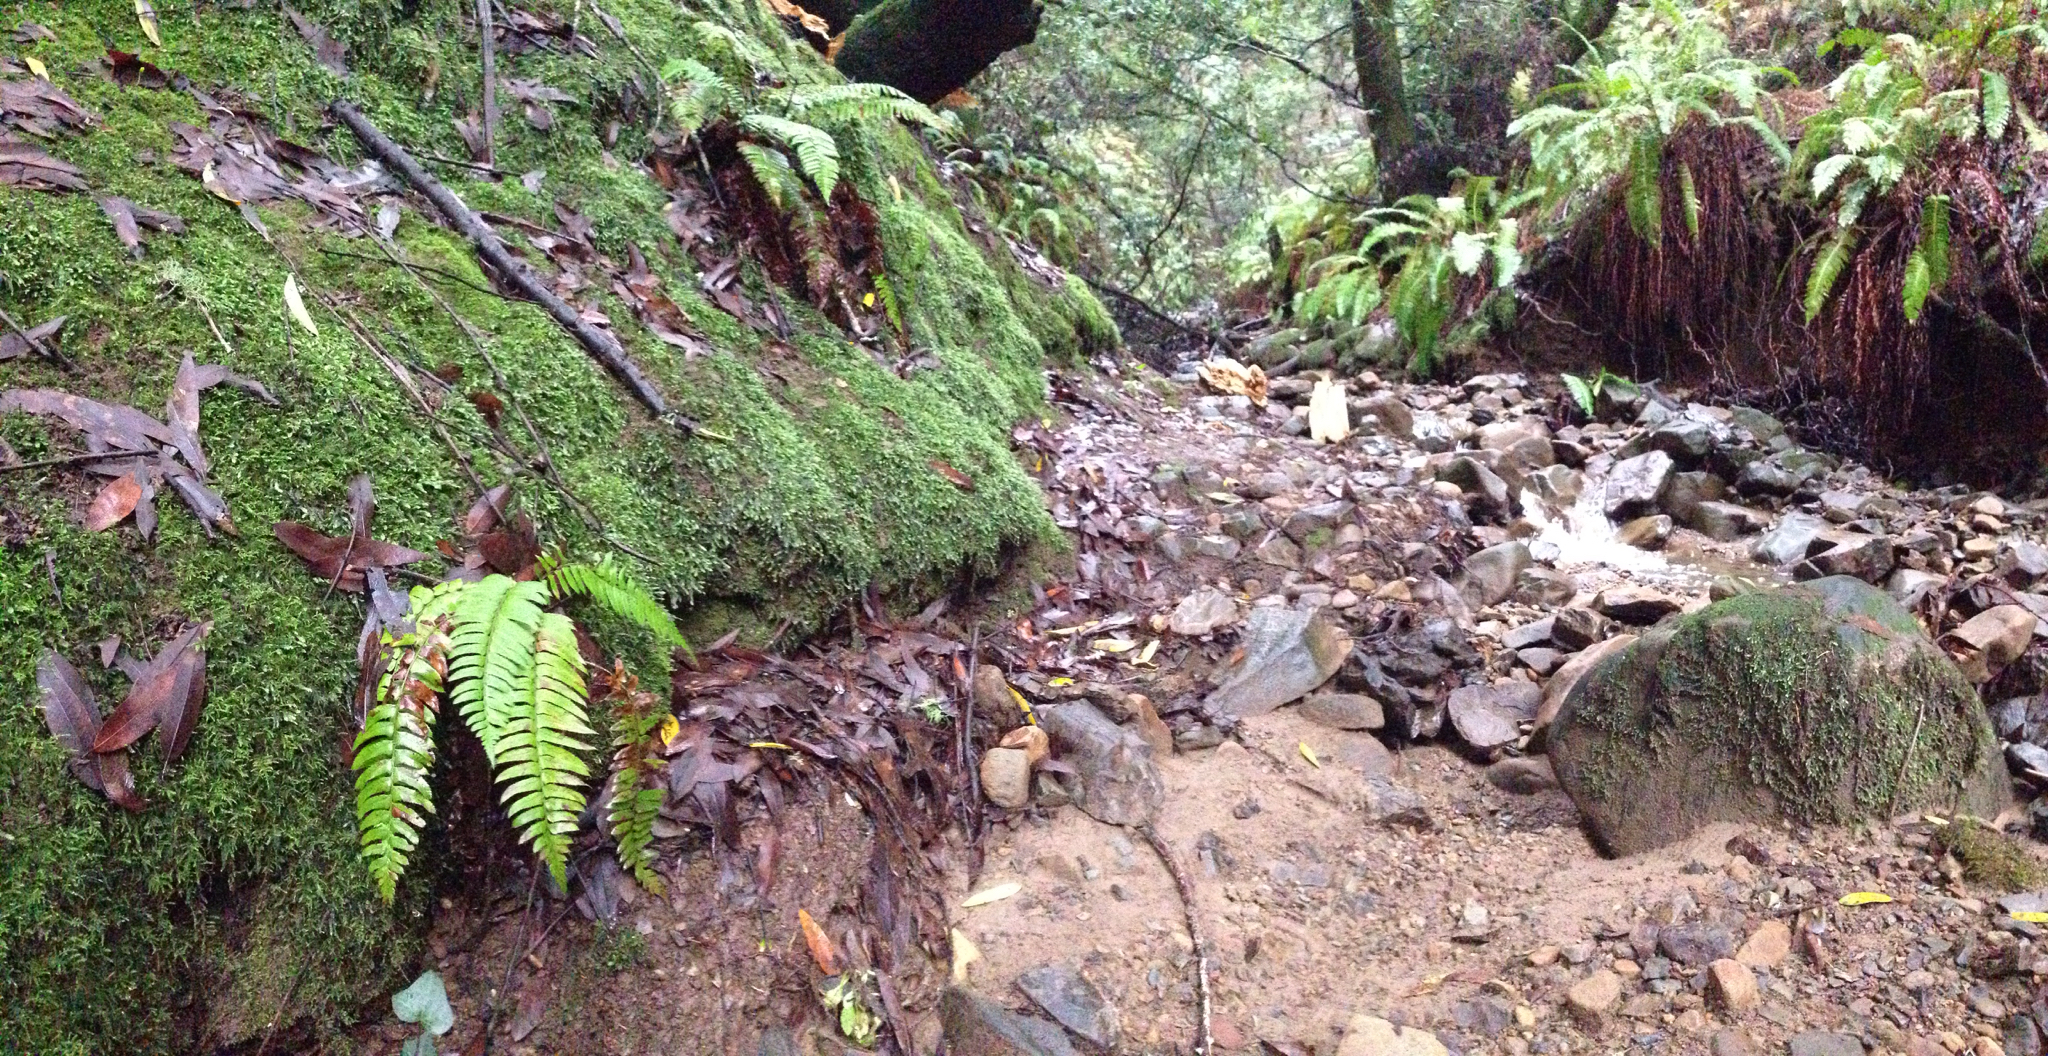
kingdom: Plantae
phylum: Bryophyta
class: Bryopsida
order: Hypnales
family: Neckeraceae
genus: Dannorrisia
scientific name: Dannorrisia bigelovii
